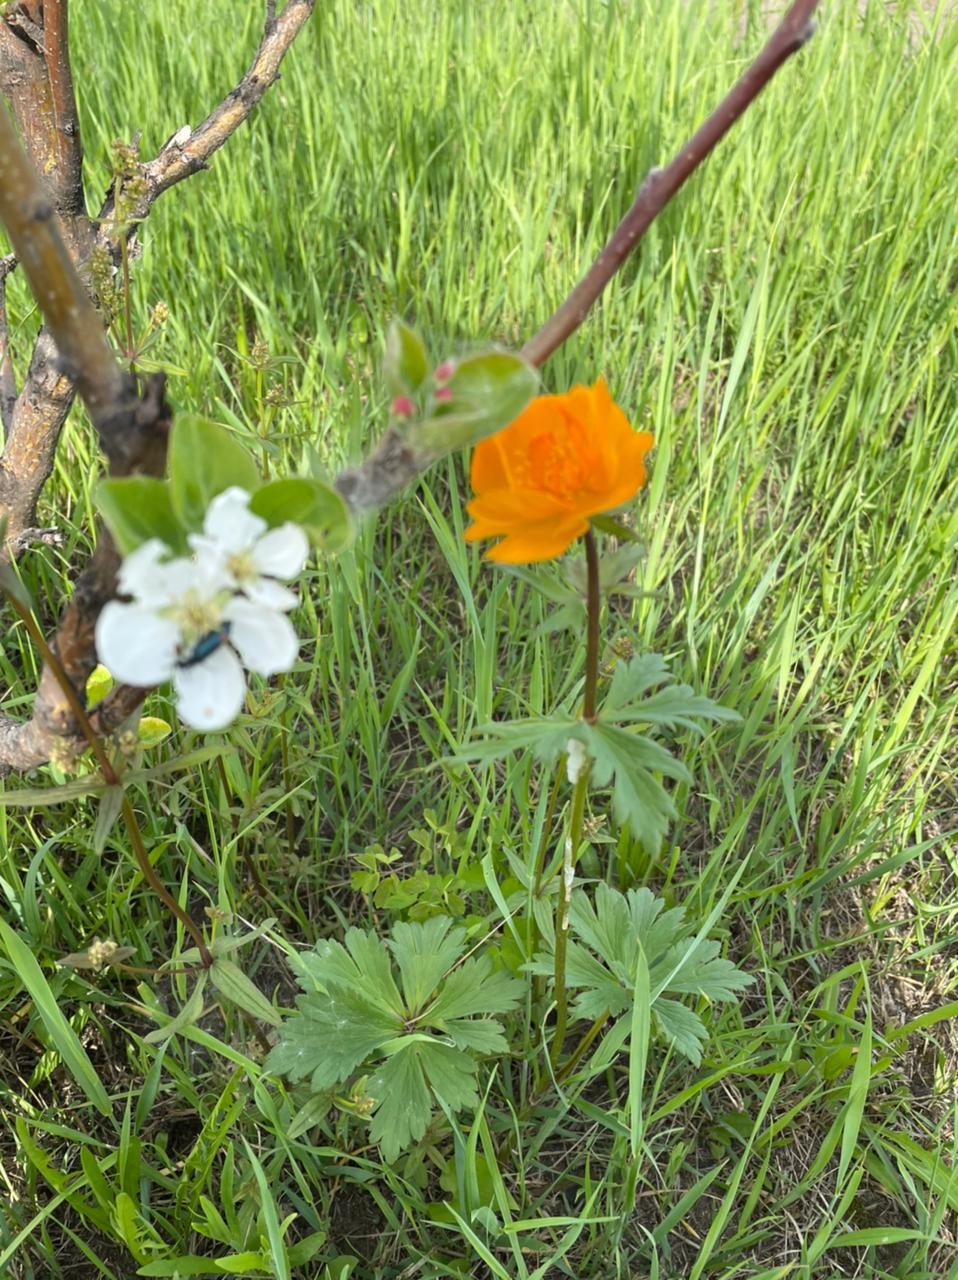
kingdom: Plantae
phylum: Tracheophyta
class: Magnoliopsida
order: Ranunculales
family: Ranunculaceae
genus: Trollius
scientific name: Trollius asiaticus
